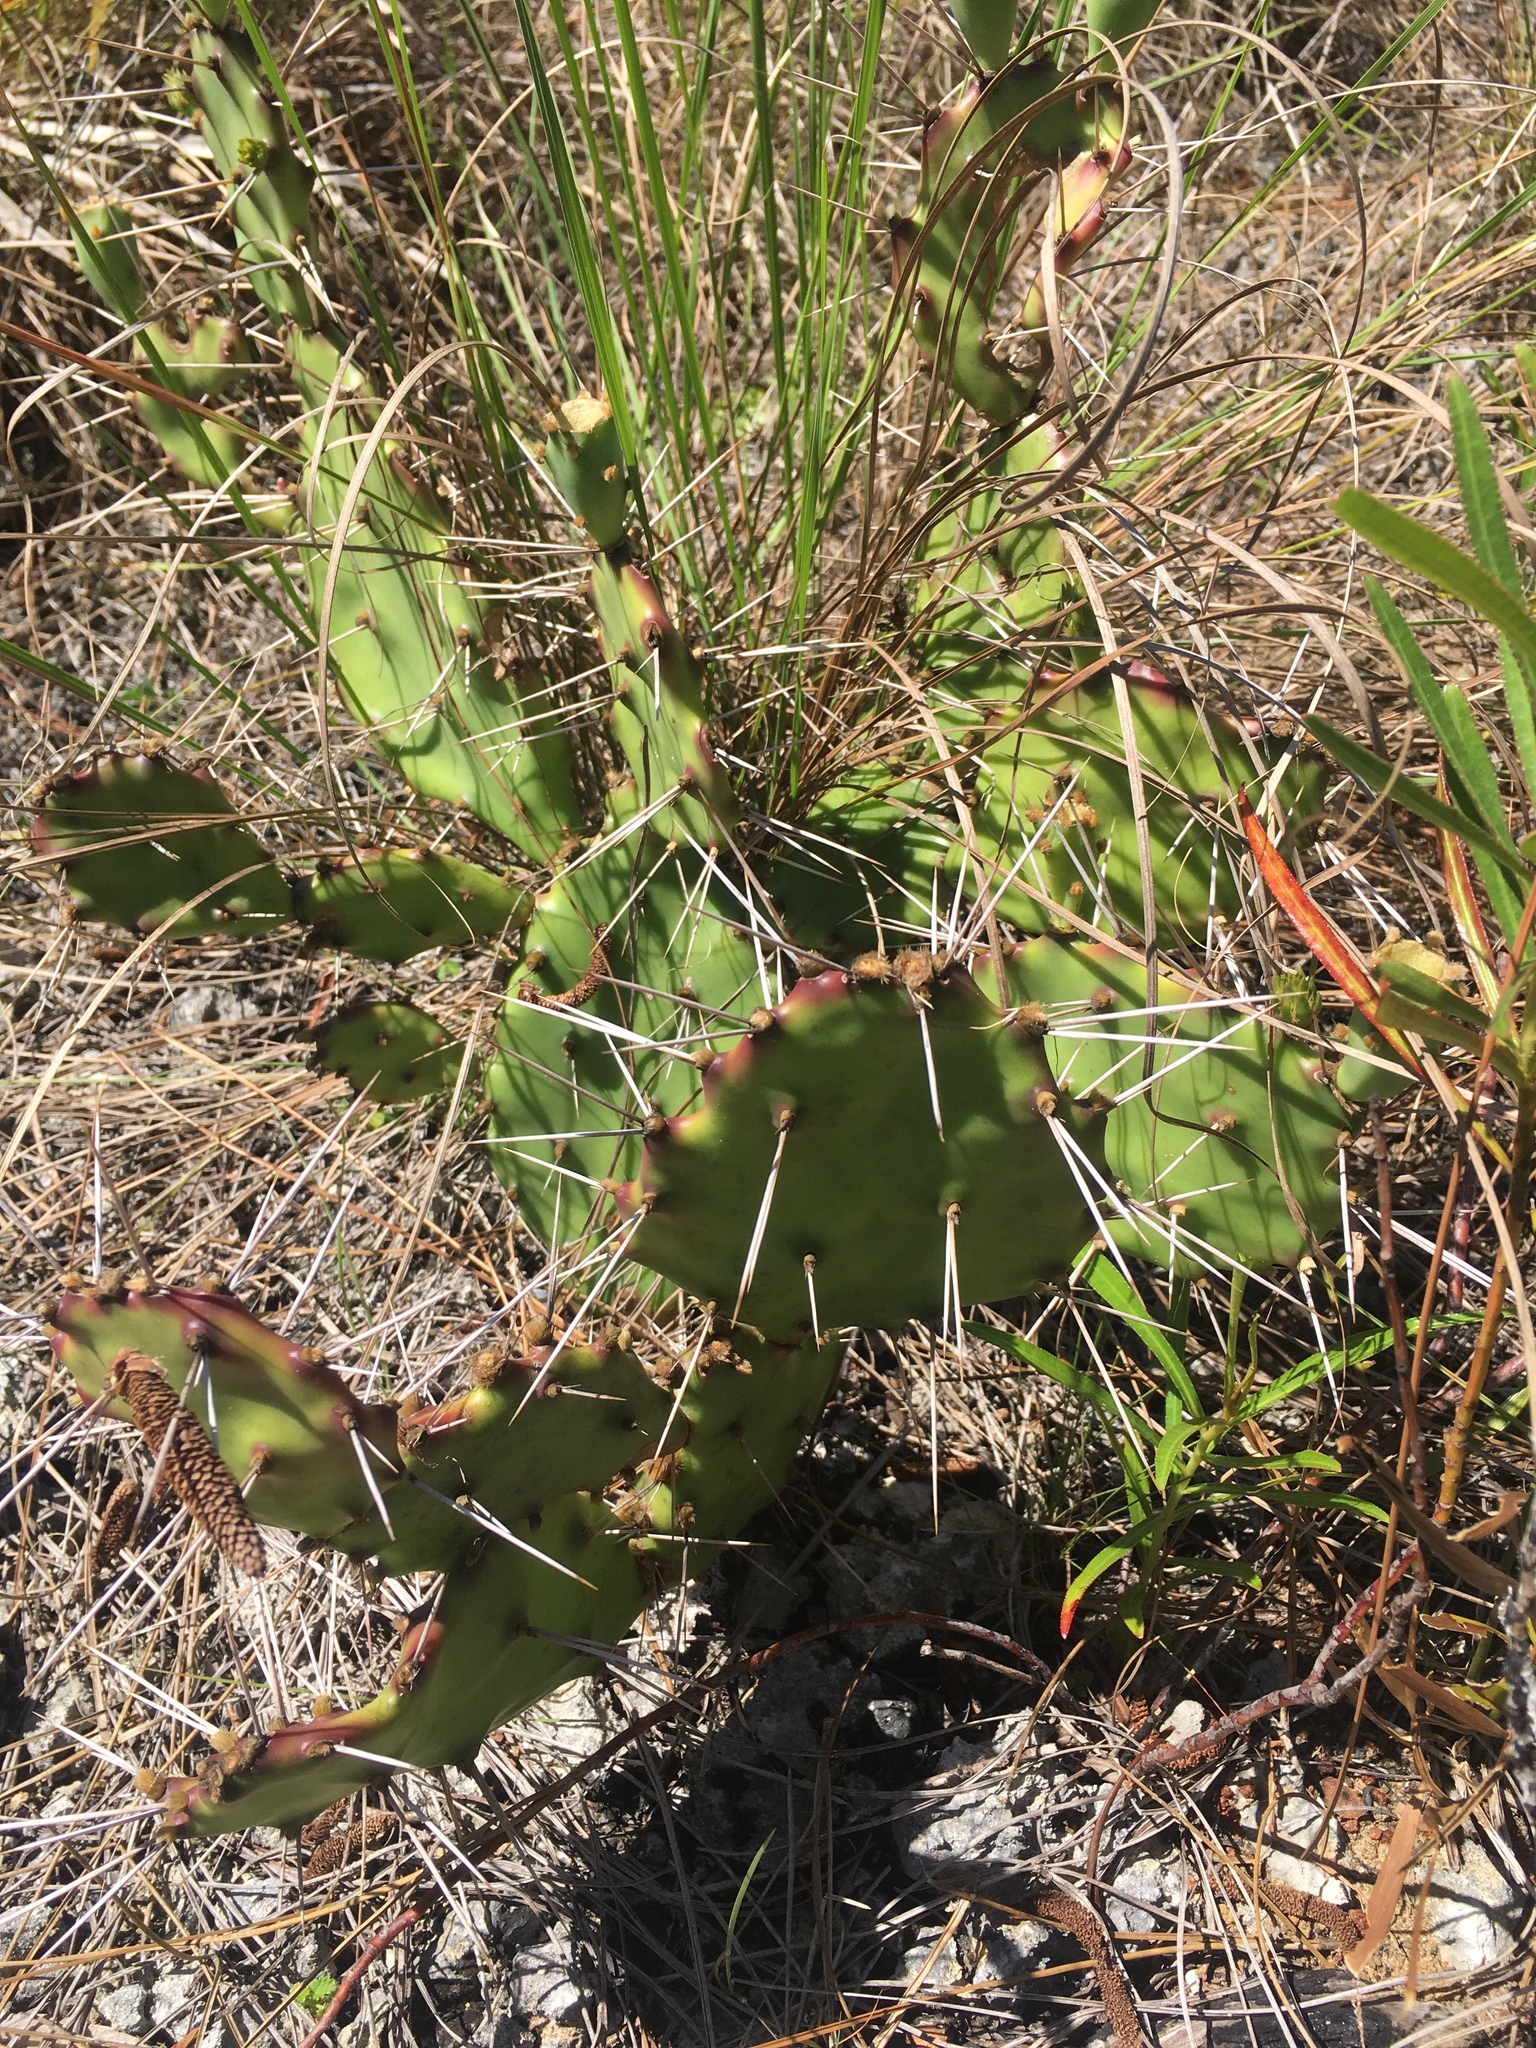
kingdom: Plantae
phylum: Tracheophyta
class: Magnoliopsida
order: Caryophyllales
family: Cactaceae
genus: Opuntia
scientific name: Opuntia austrina
